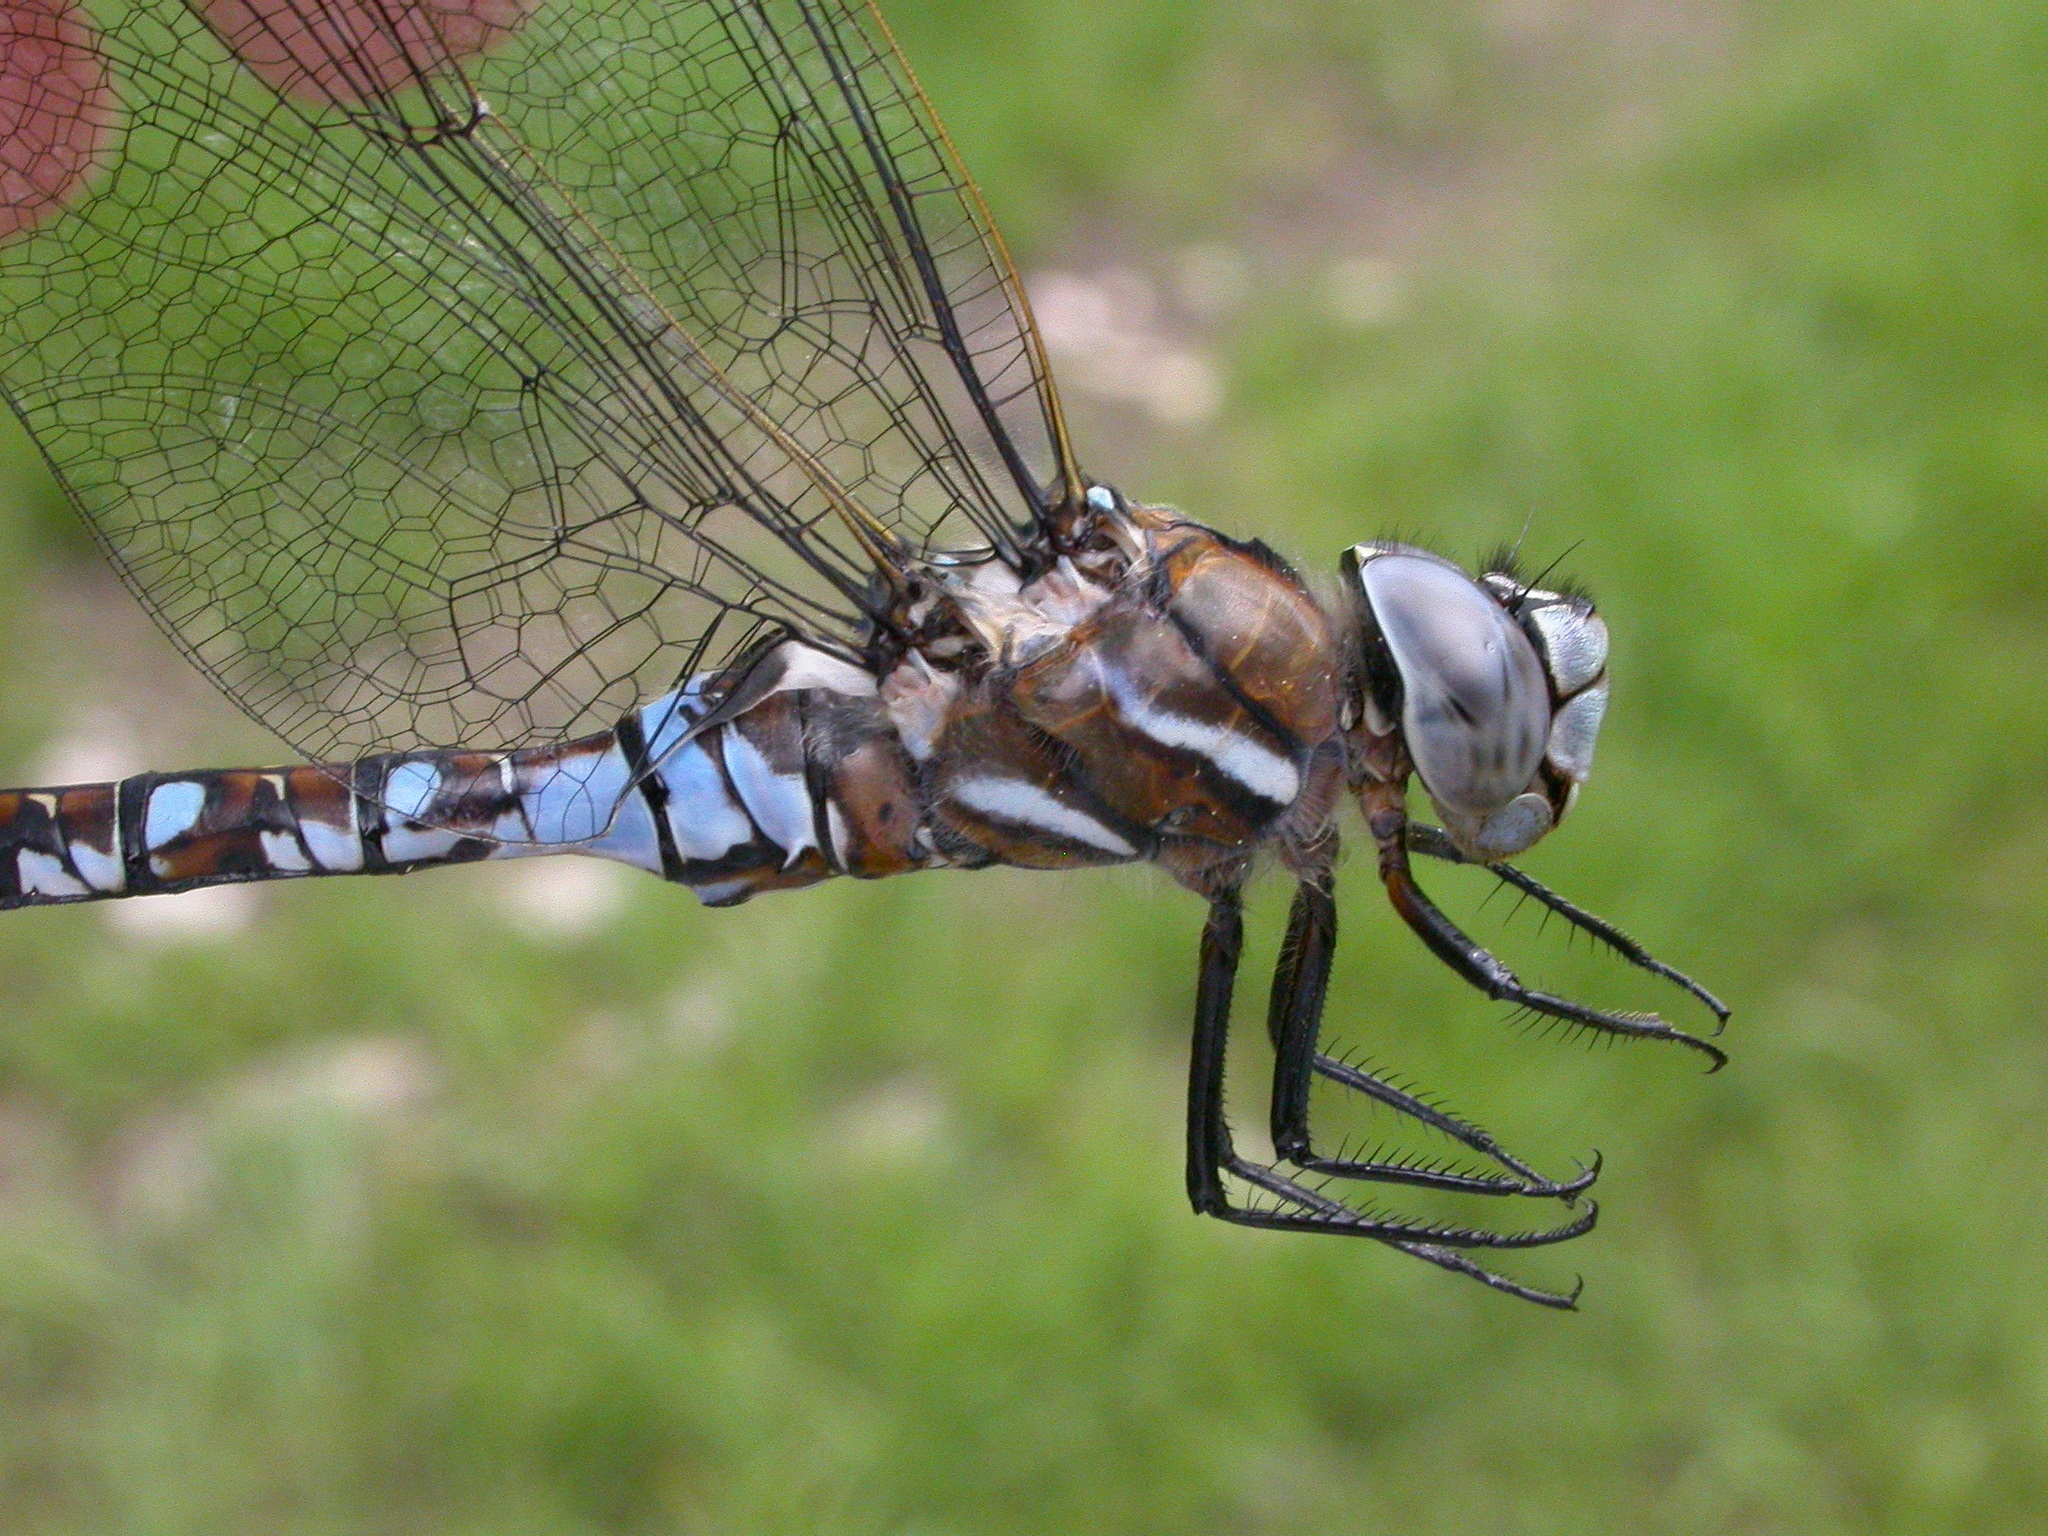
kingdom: Animalia
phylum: Arthropoda
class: Insecta
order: Odonata
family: Aeshnidae
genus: Rhionaeschna
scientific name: Rhionaeschna californica
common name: California darner
